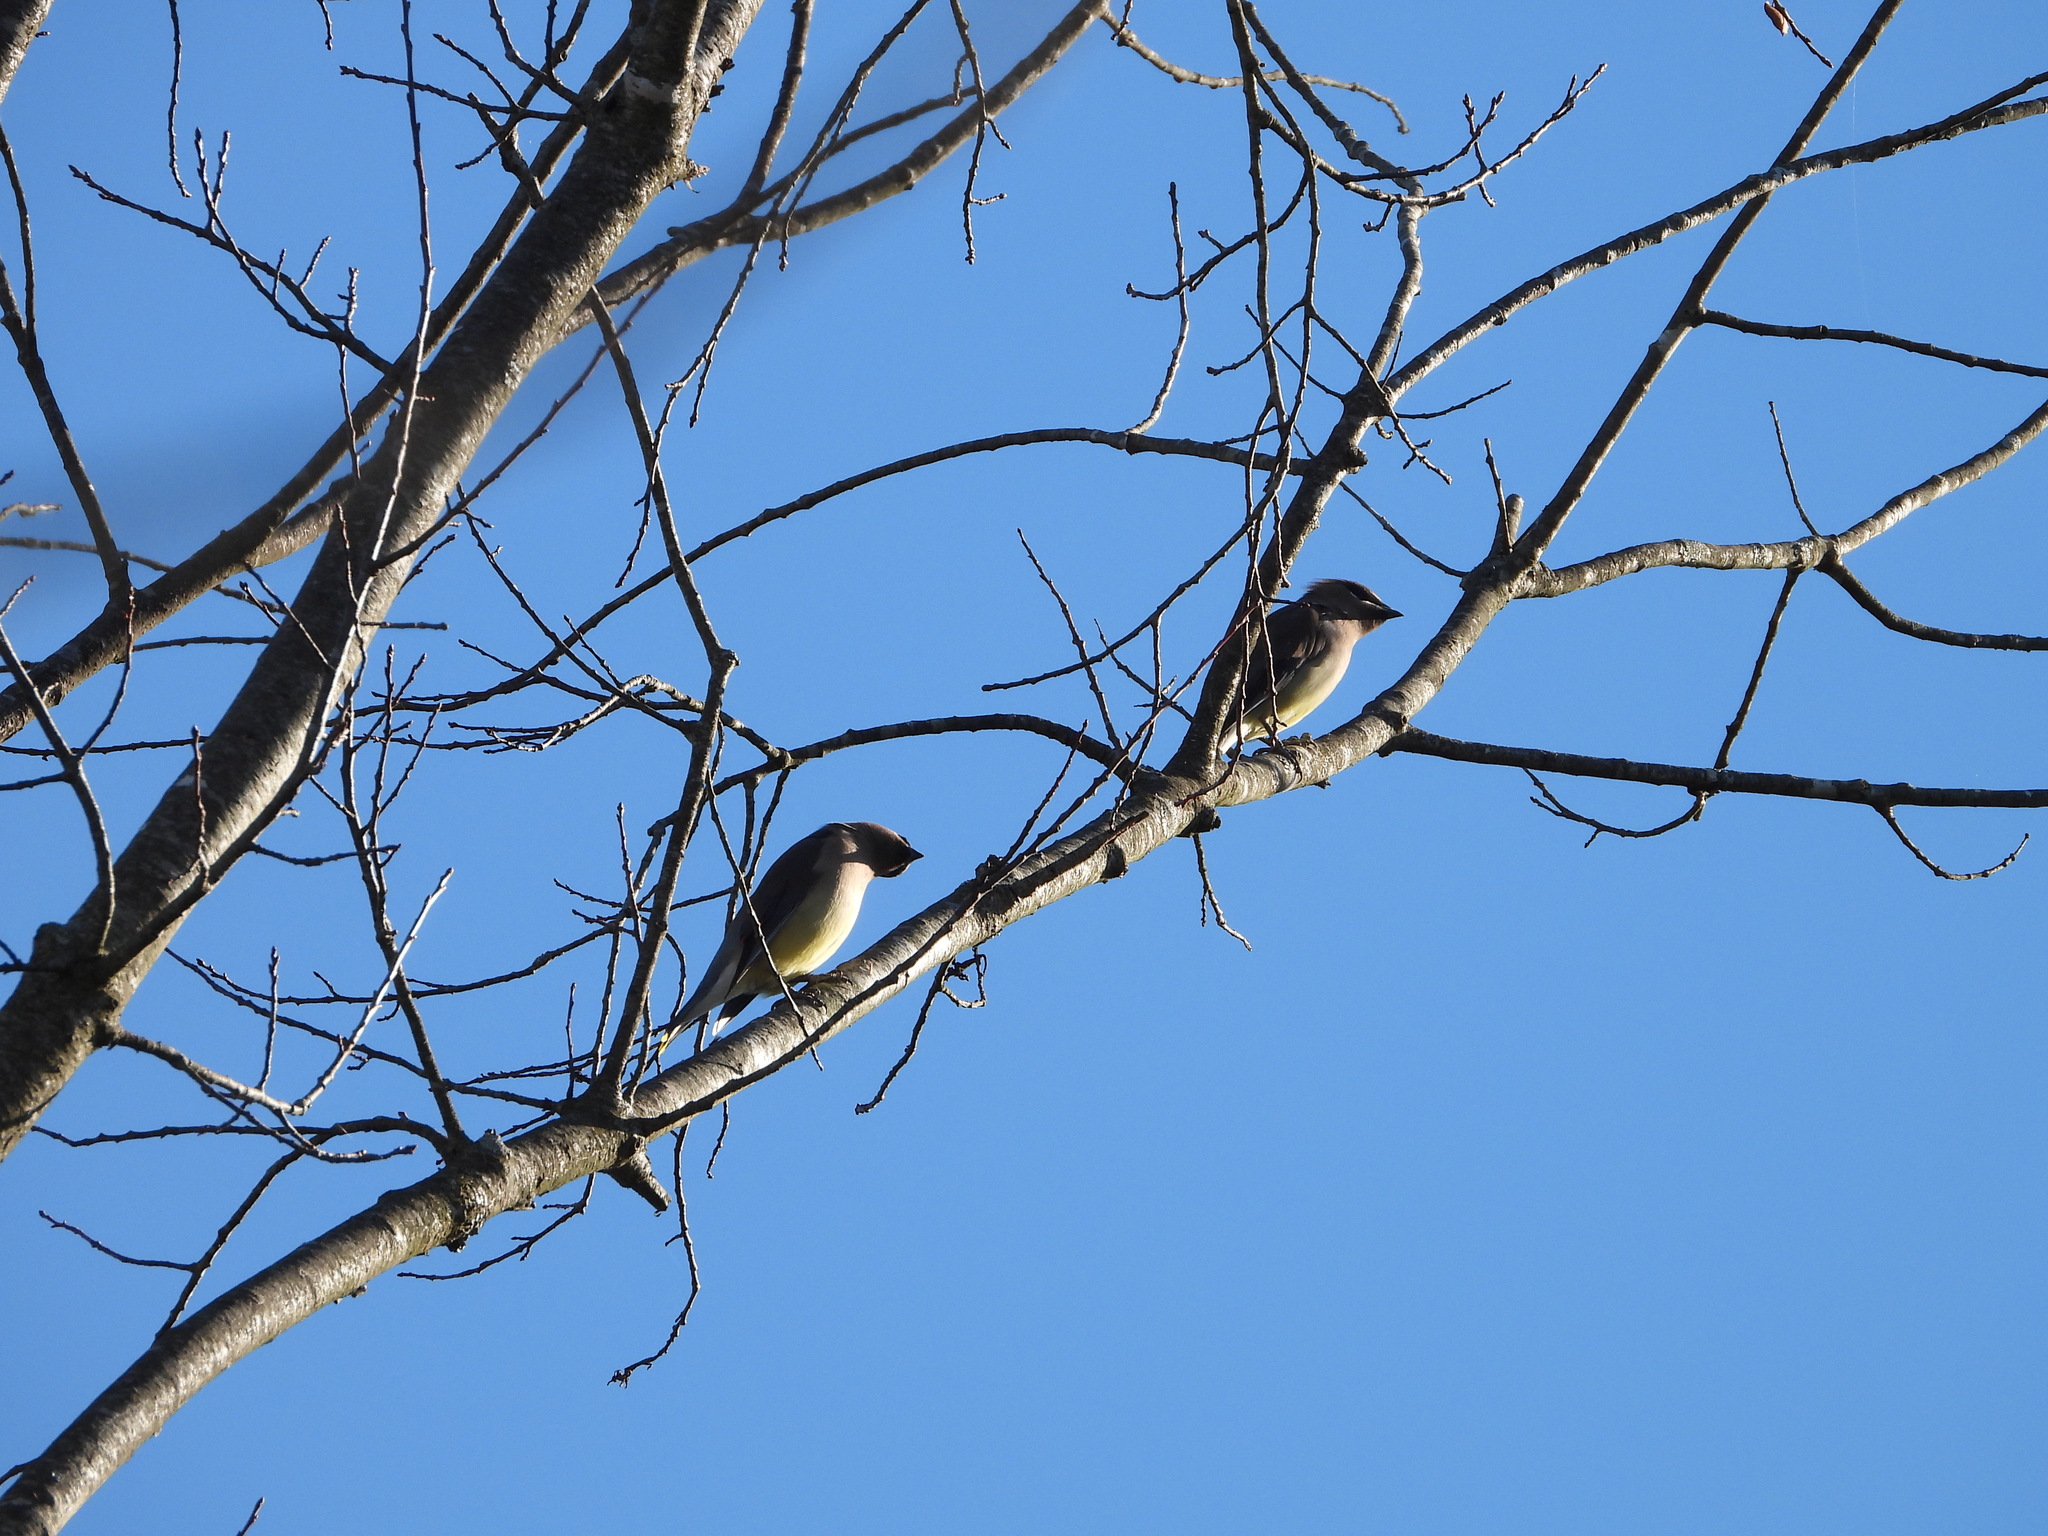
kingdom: Animalia
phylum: Chordata
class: Aves
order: Passeriformes
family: Bombycillidae
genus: Bombycilla
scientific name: Bombycilla cedrorum
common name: Cedar waxwing
